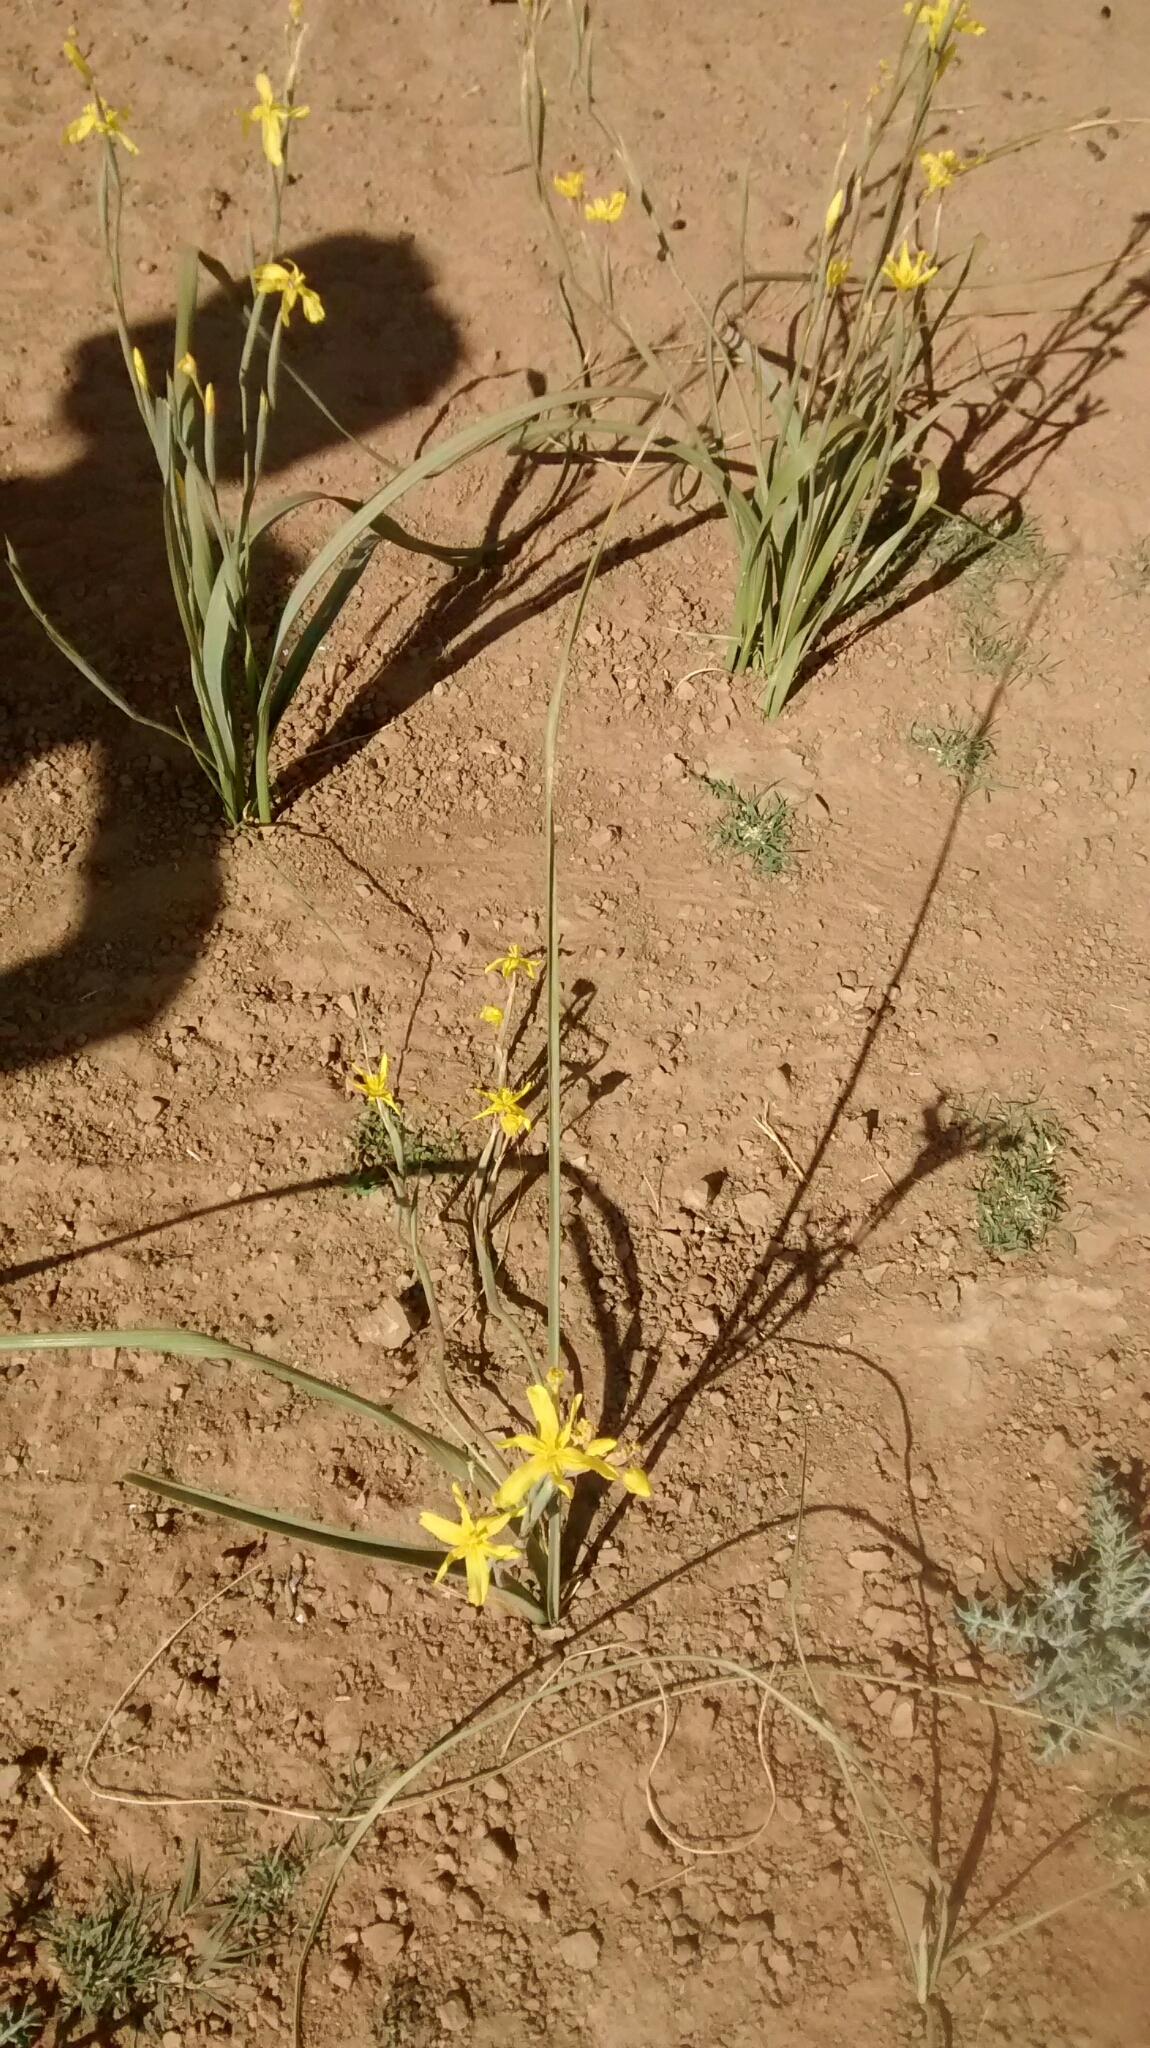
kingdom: Plantae
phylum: Tracheophyta
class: Liliopsida
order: Asparagales
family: Iridaceae
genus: Moraea
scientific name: Moraea pallida
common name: Yellow tulp
